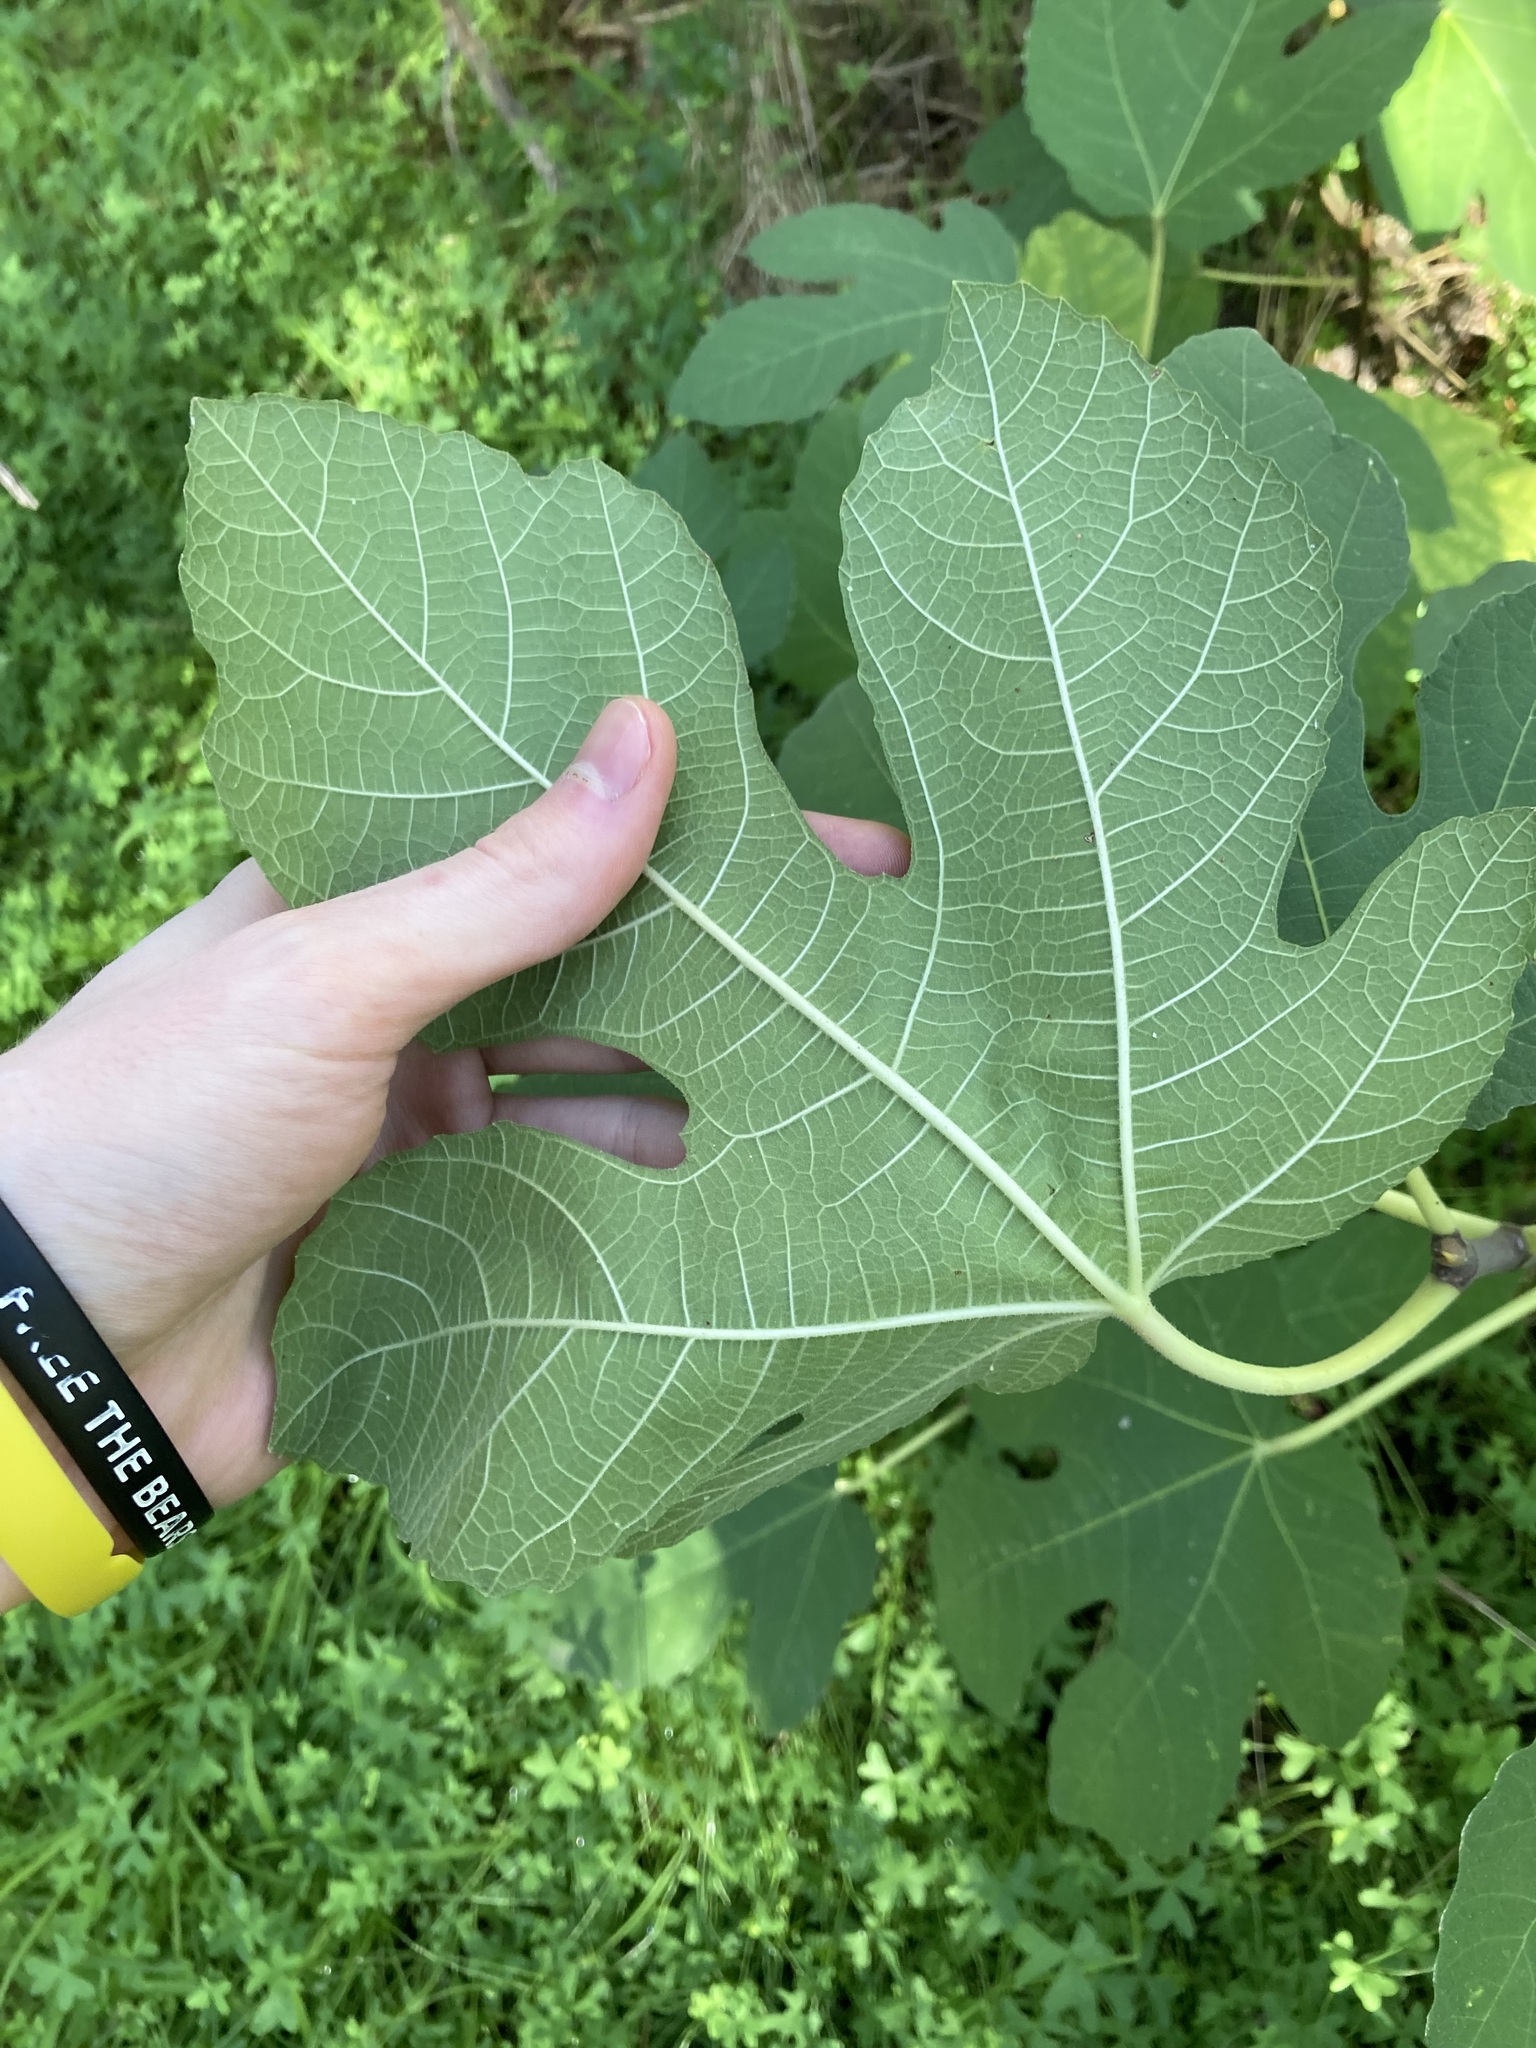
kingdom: Plantae
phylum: Tracheophyta
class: Magnoliopsida
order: Rosales
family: Moraceae
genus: Ficus
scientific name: Ficus carica
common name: Fig
